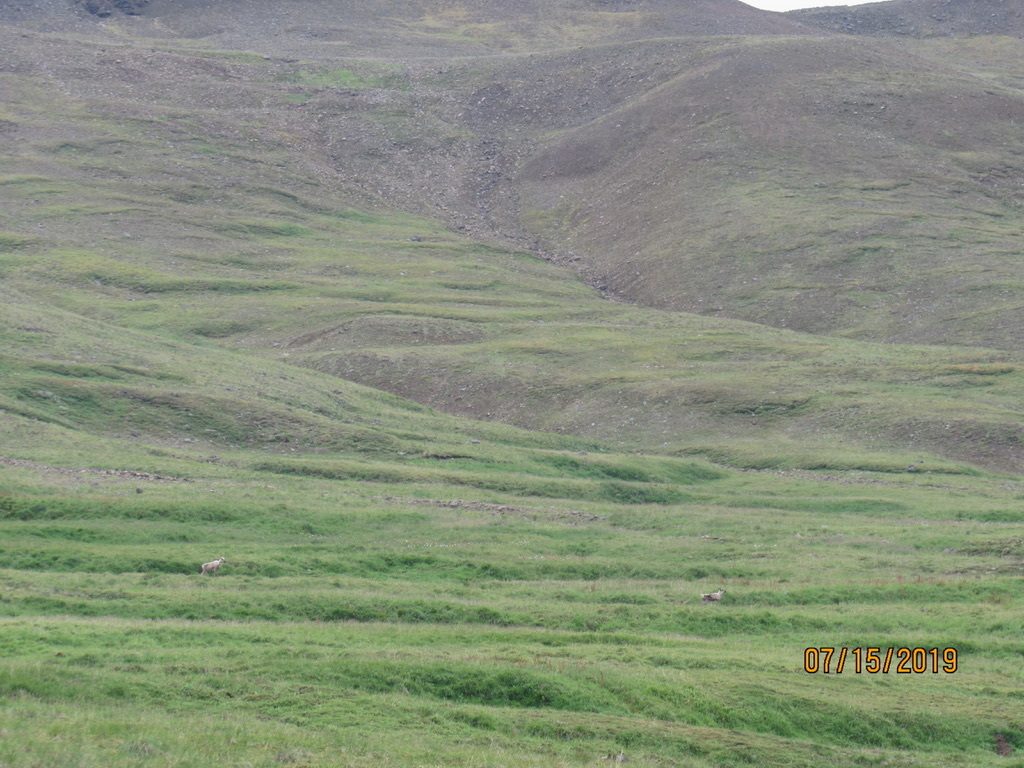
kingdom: Animalia
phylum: Chordata
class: Mammalia
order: Artiodactyla
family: Cervidae
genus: Rangifer
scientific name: Rangifer tarandus
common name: Reindeer
